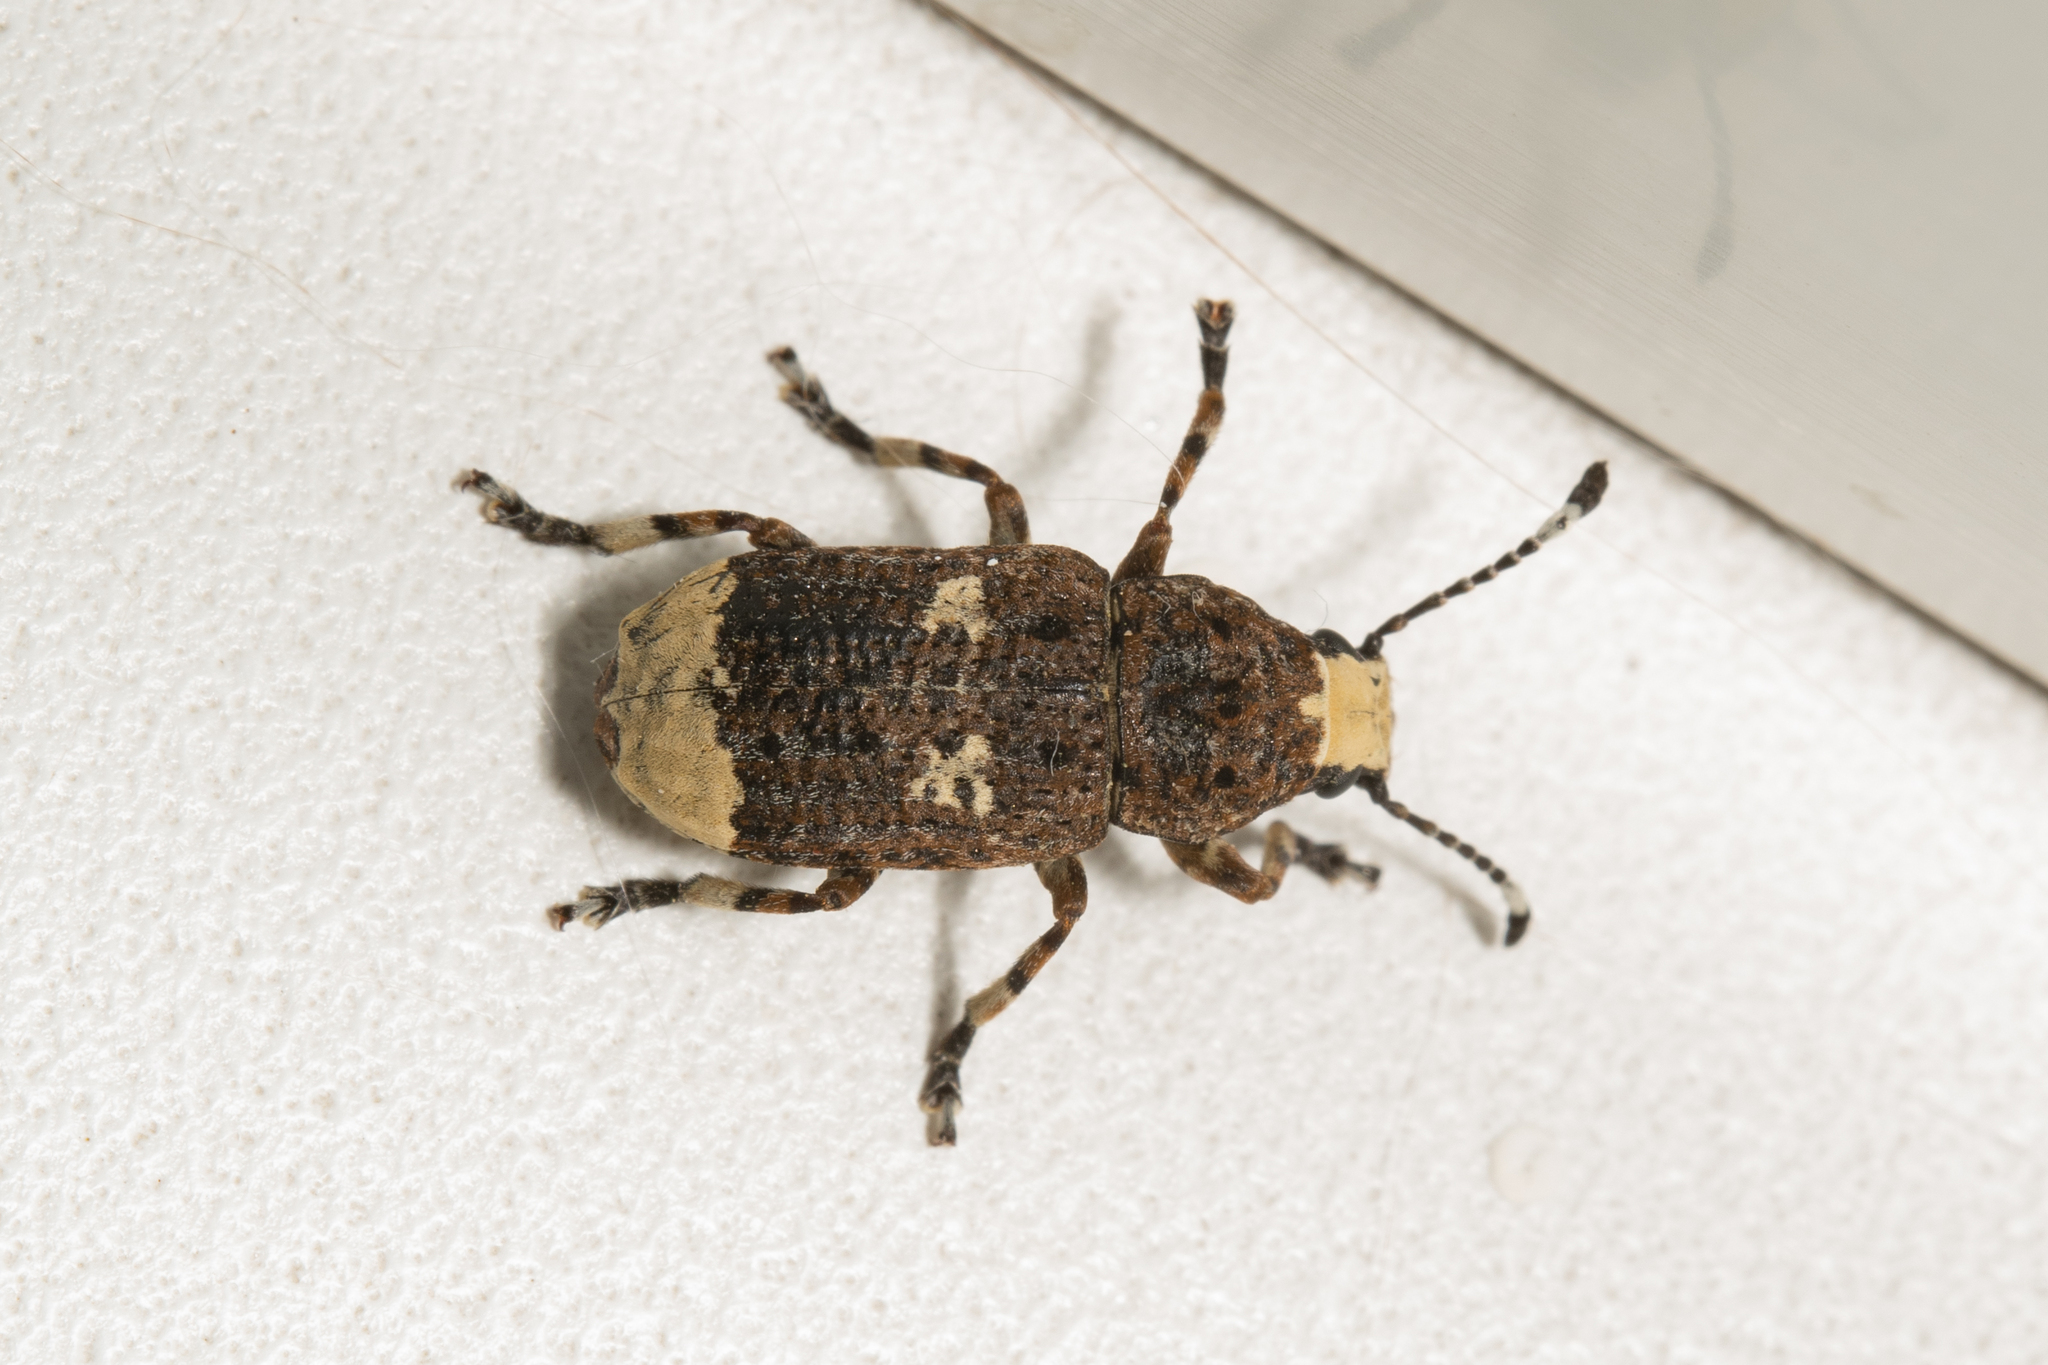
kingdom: Animalia
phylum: Arthropoda
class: Insecta
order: Coleoptera
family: Anthribidae
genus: Platystomos
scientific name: Platystomos albinus
